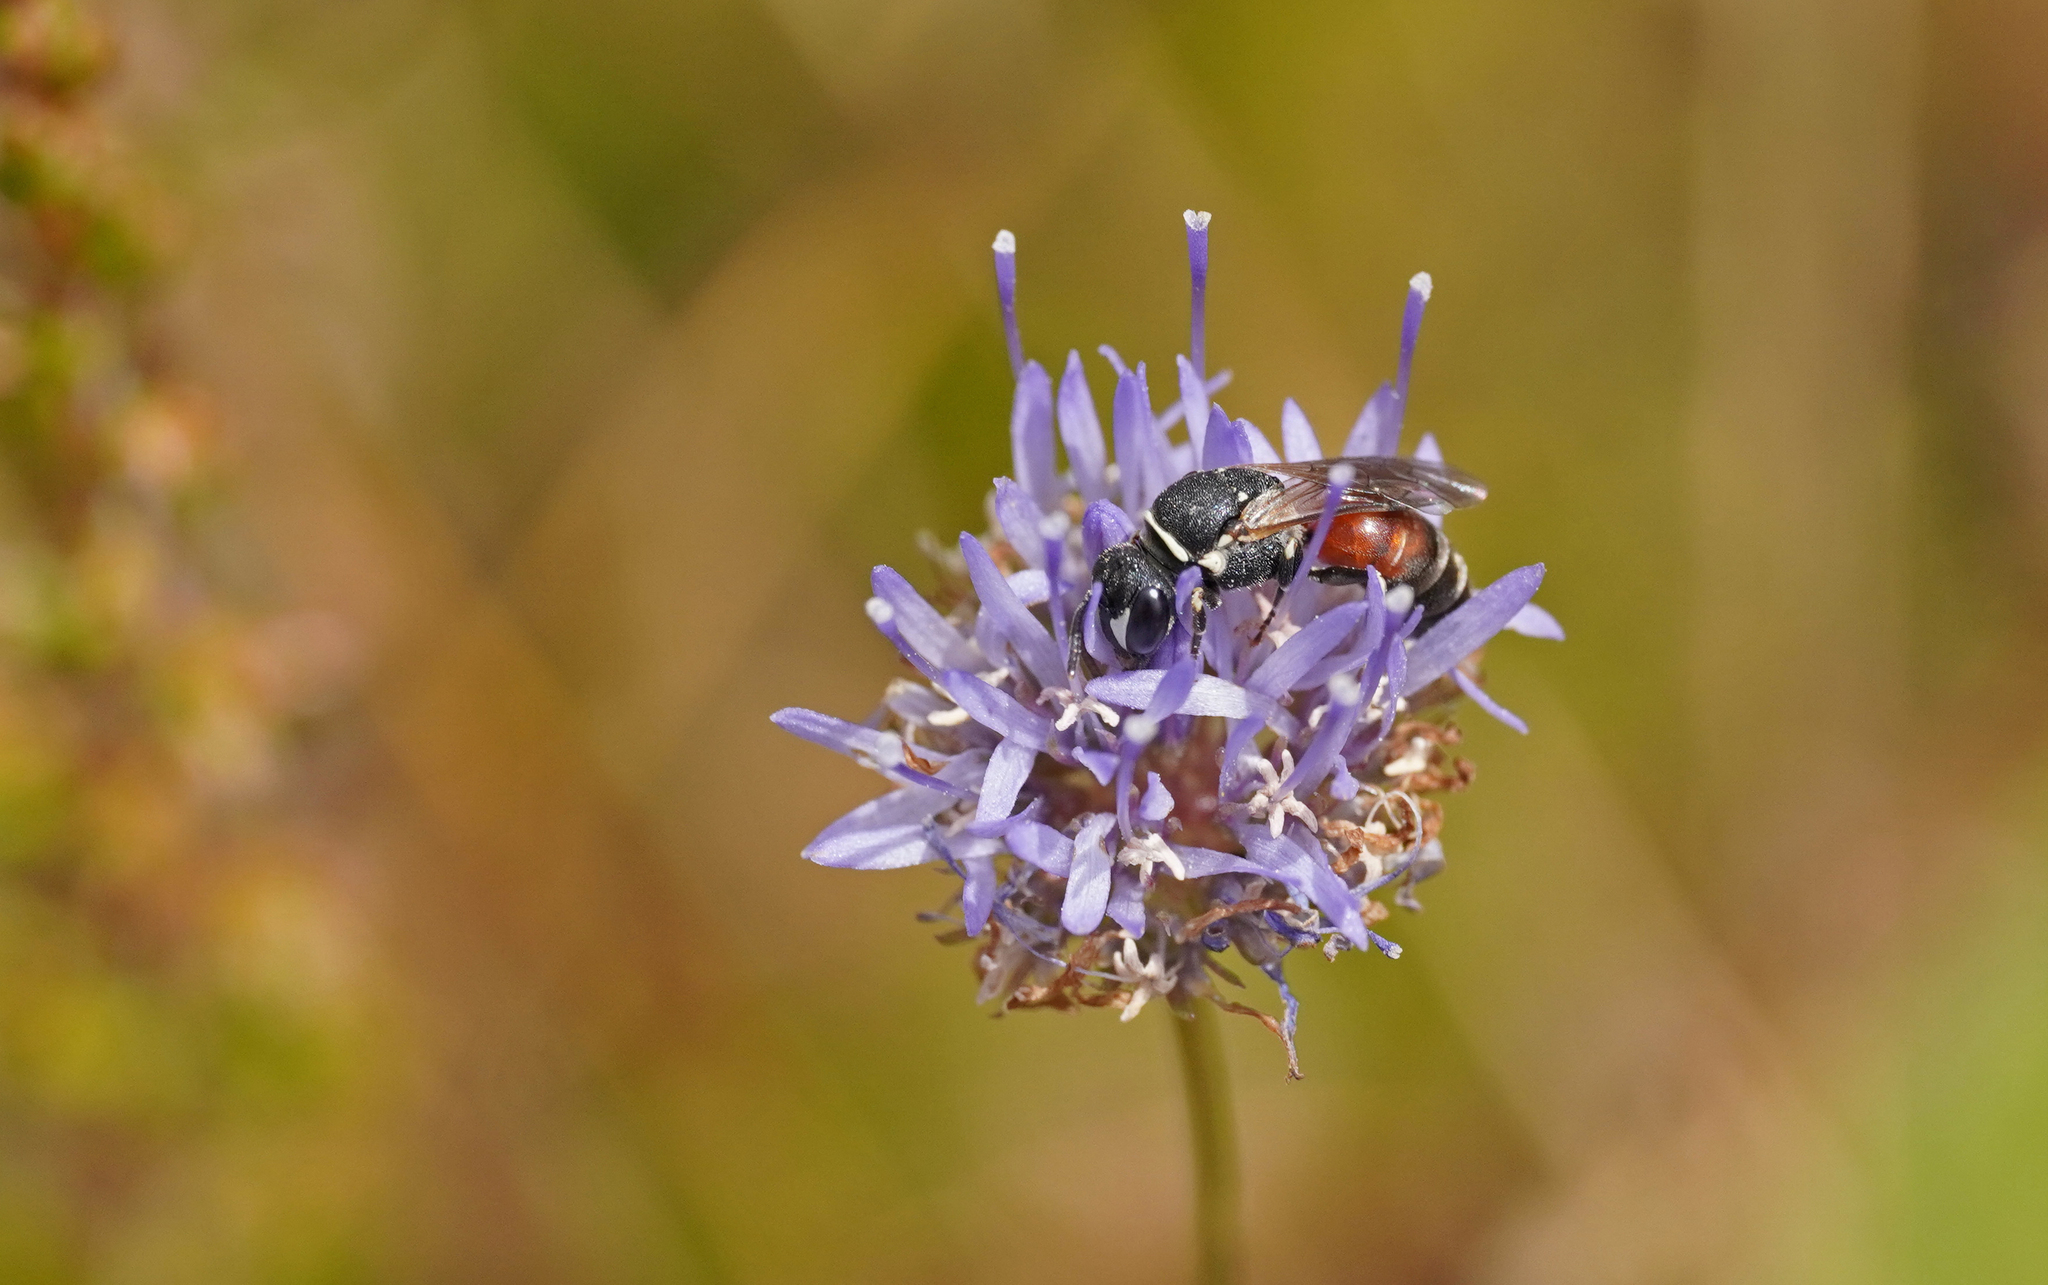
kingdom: Animalia
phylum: Arthropoda
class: Insecta
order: Hymenoptera
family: Colletidae
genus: Hylaeus
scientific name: Hylaeus variegatus
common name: Masked bee
